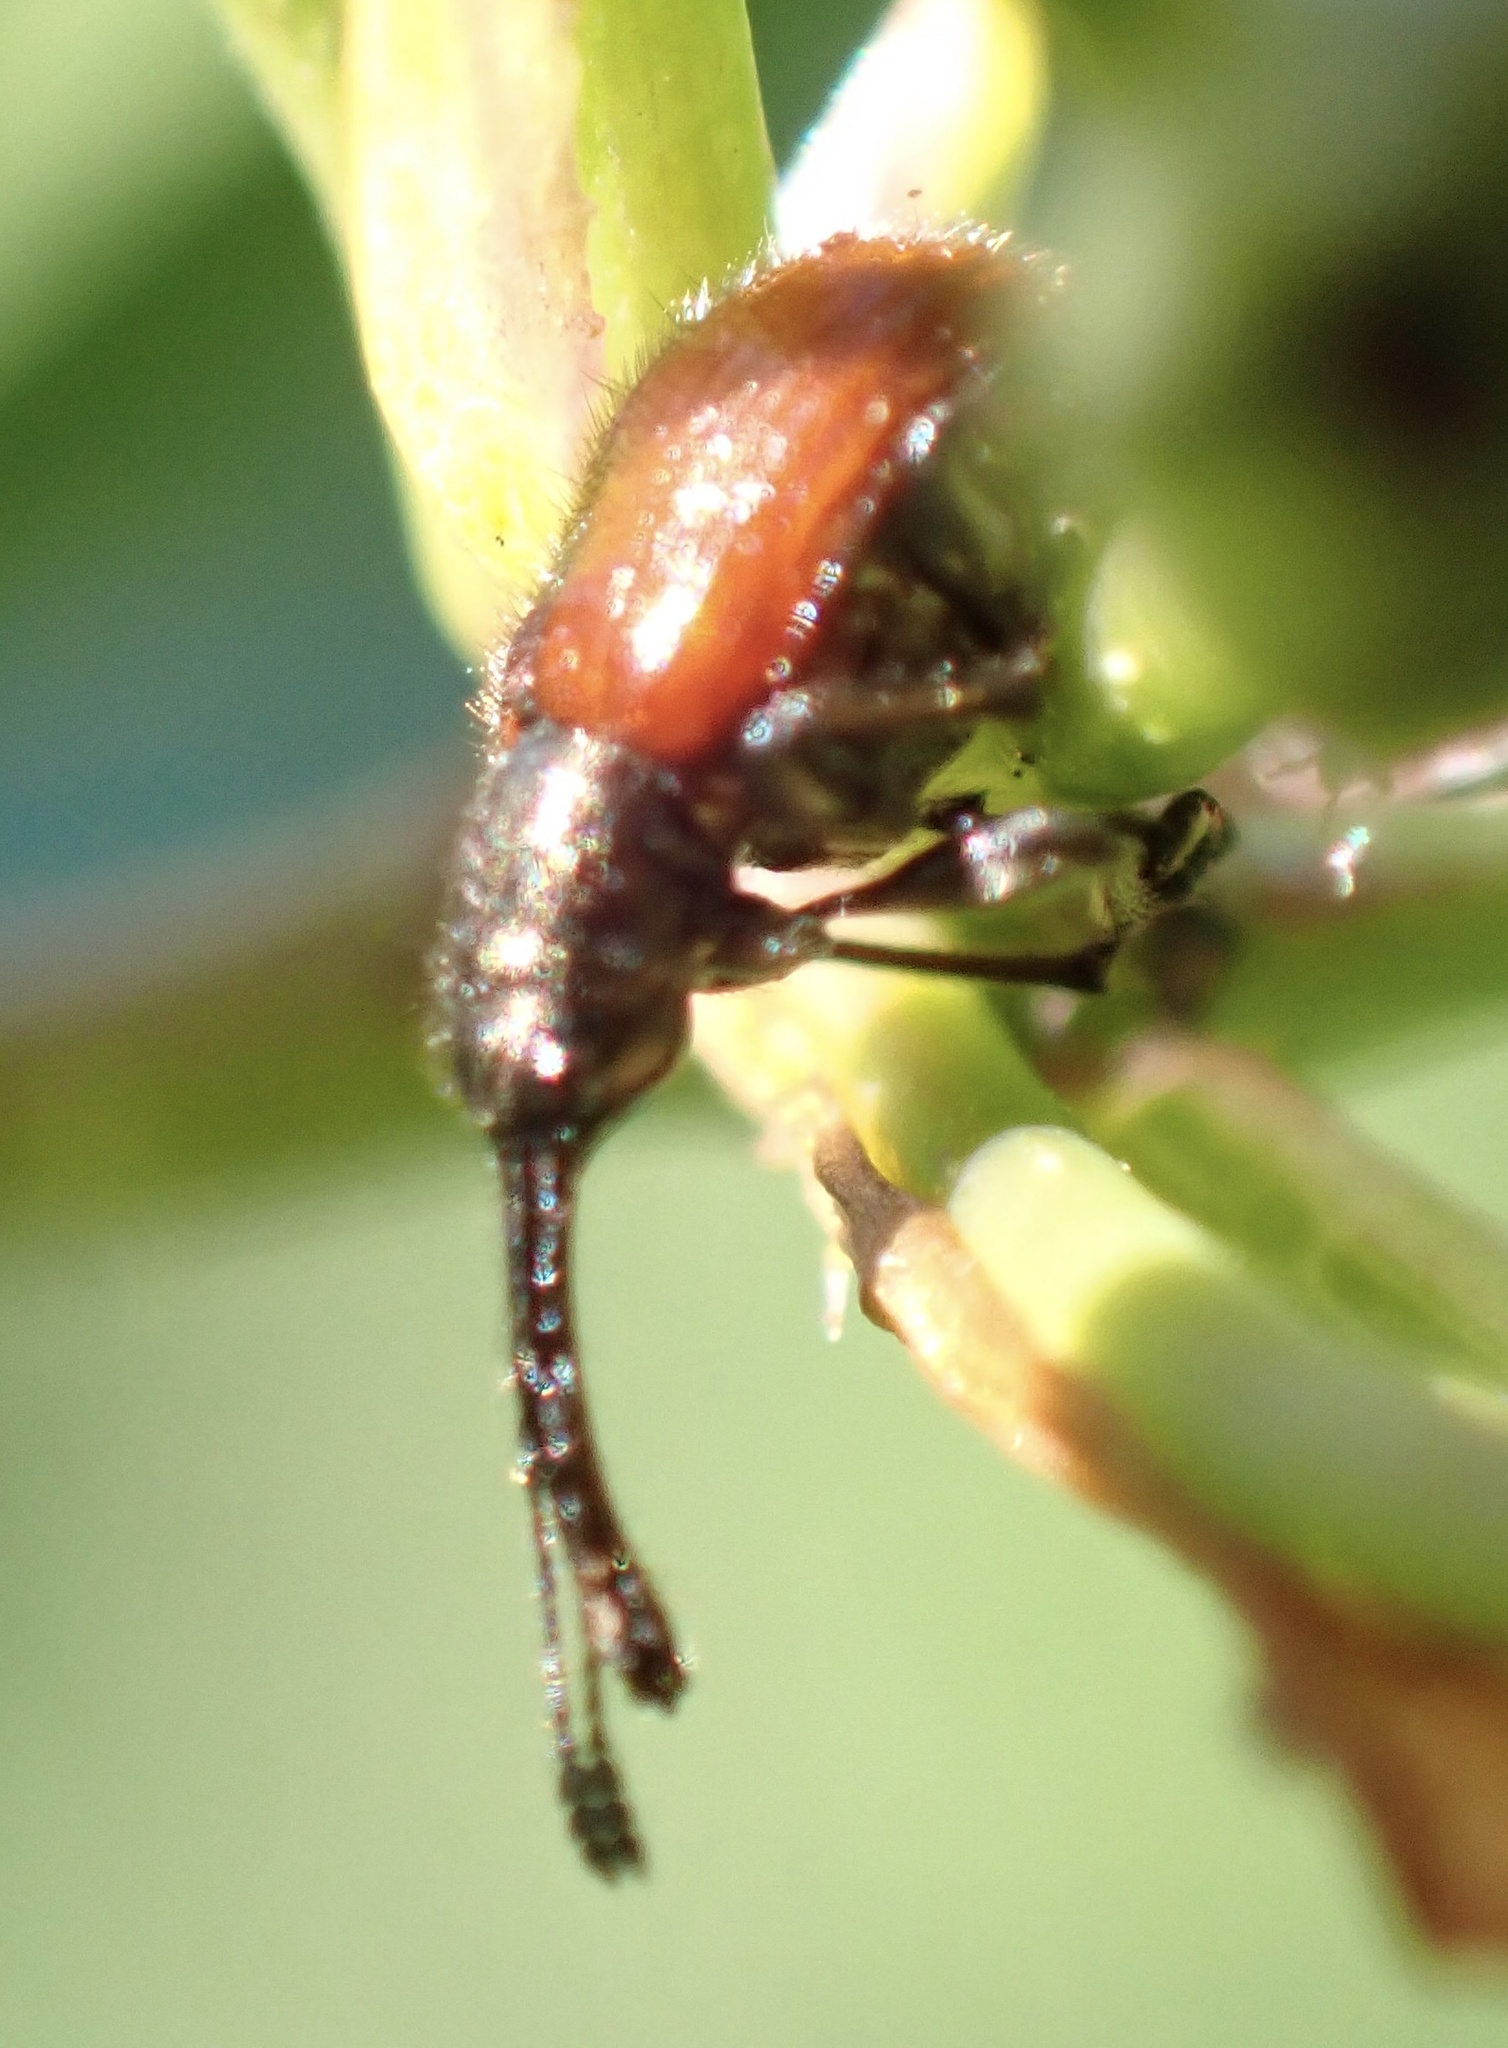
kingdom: Animalia
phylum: Arthropoda
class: Insecta
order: Coleoptera
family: Rhynchitidae
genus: Tatianaerhynchites
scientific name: Tatianaerhynchites aequatus
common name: Apple fruit rhynchites
